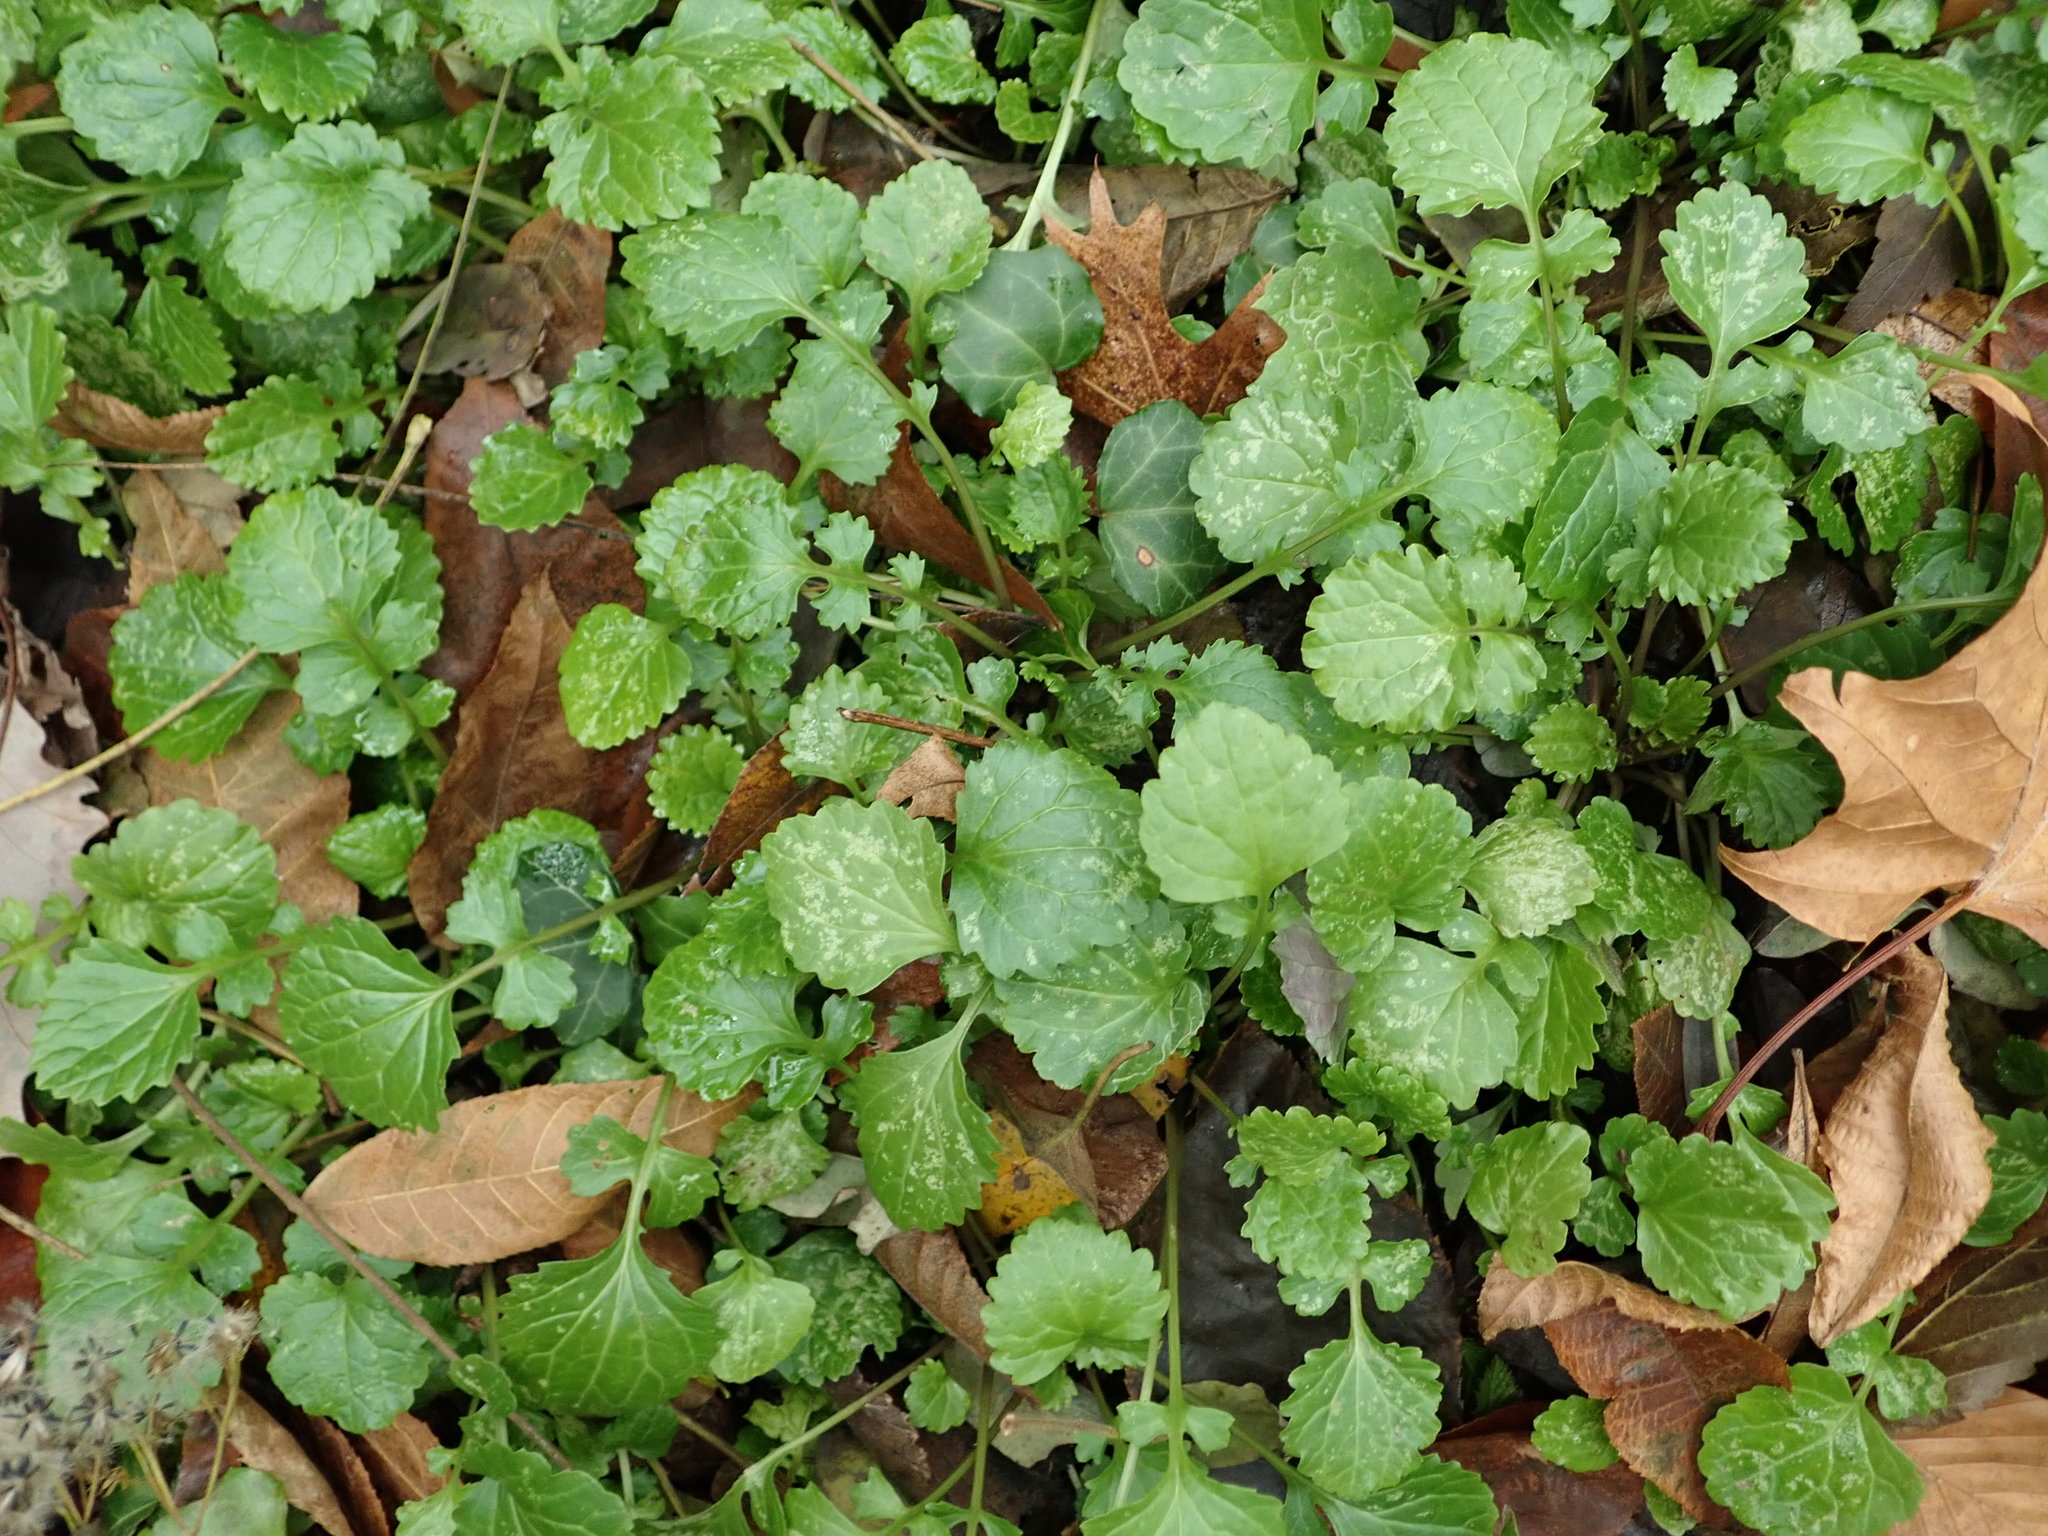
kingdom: Plantae
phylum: Tracheophyta
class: Magnoliopsida
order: Asterales
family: Asteraceae
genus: Packera
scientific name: Packera glabella
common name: Butterweed
